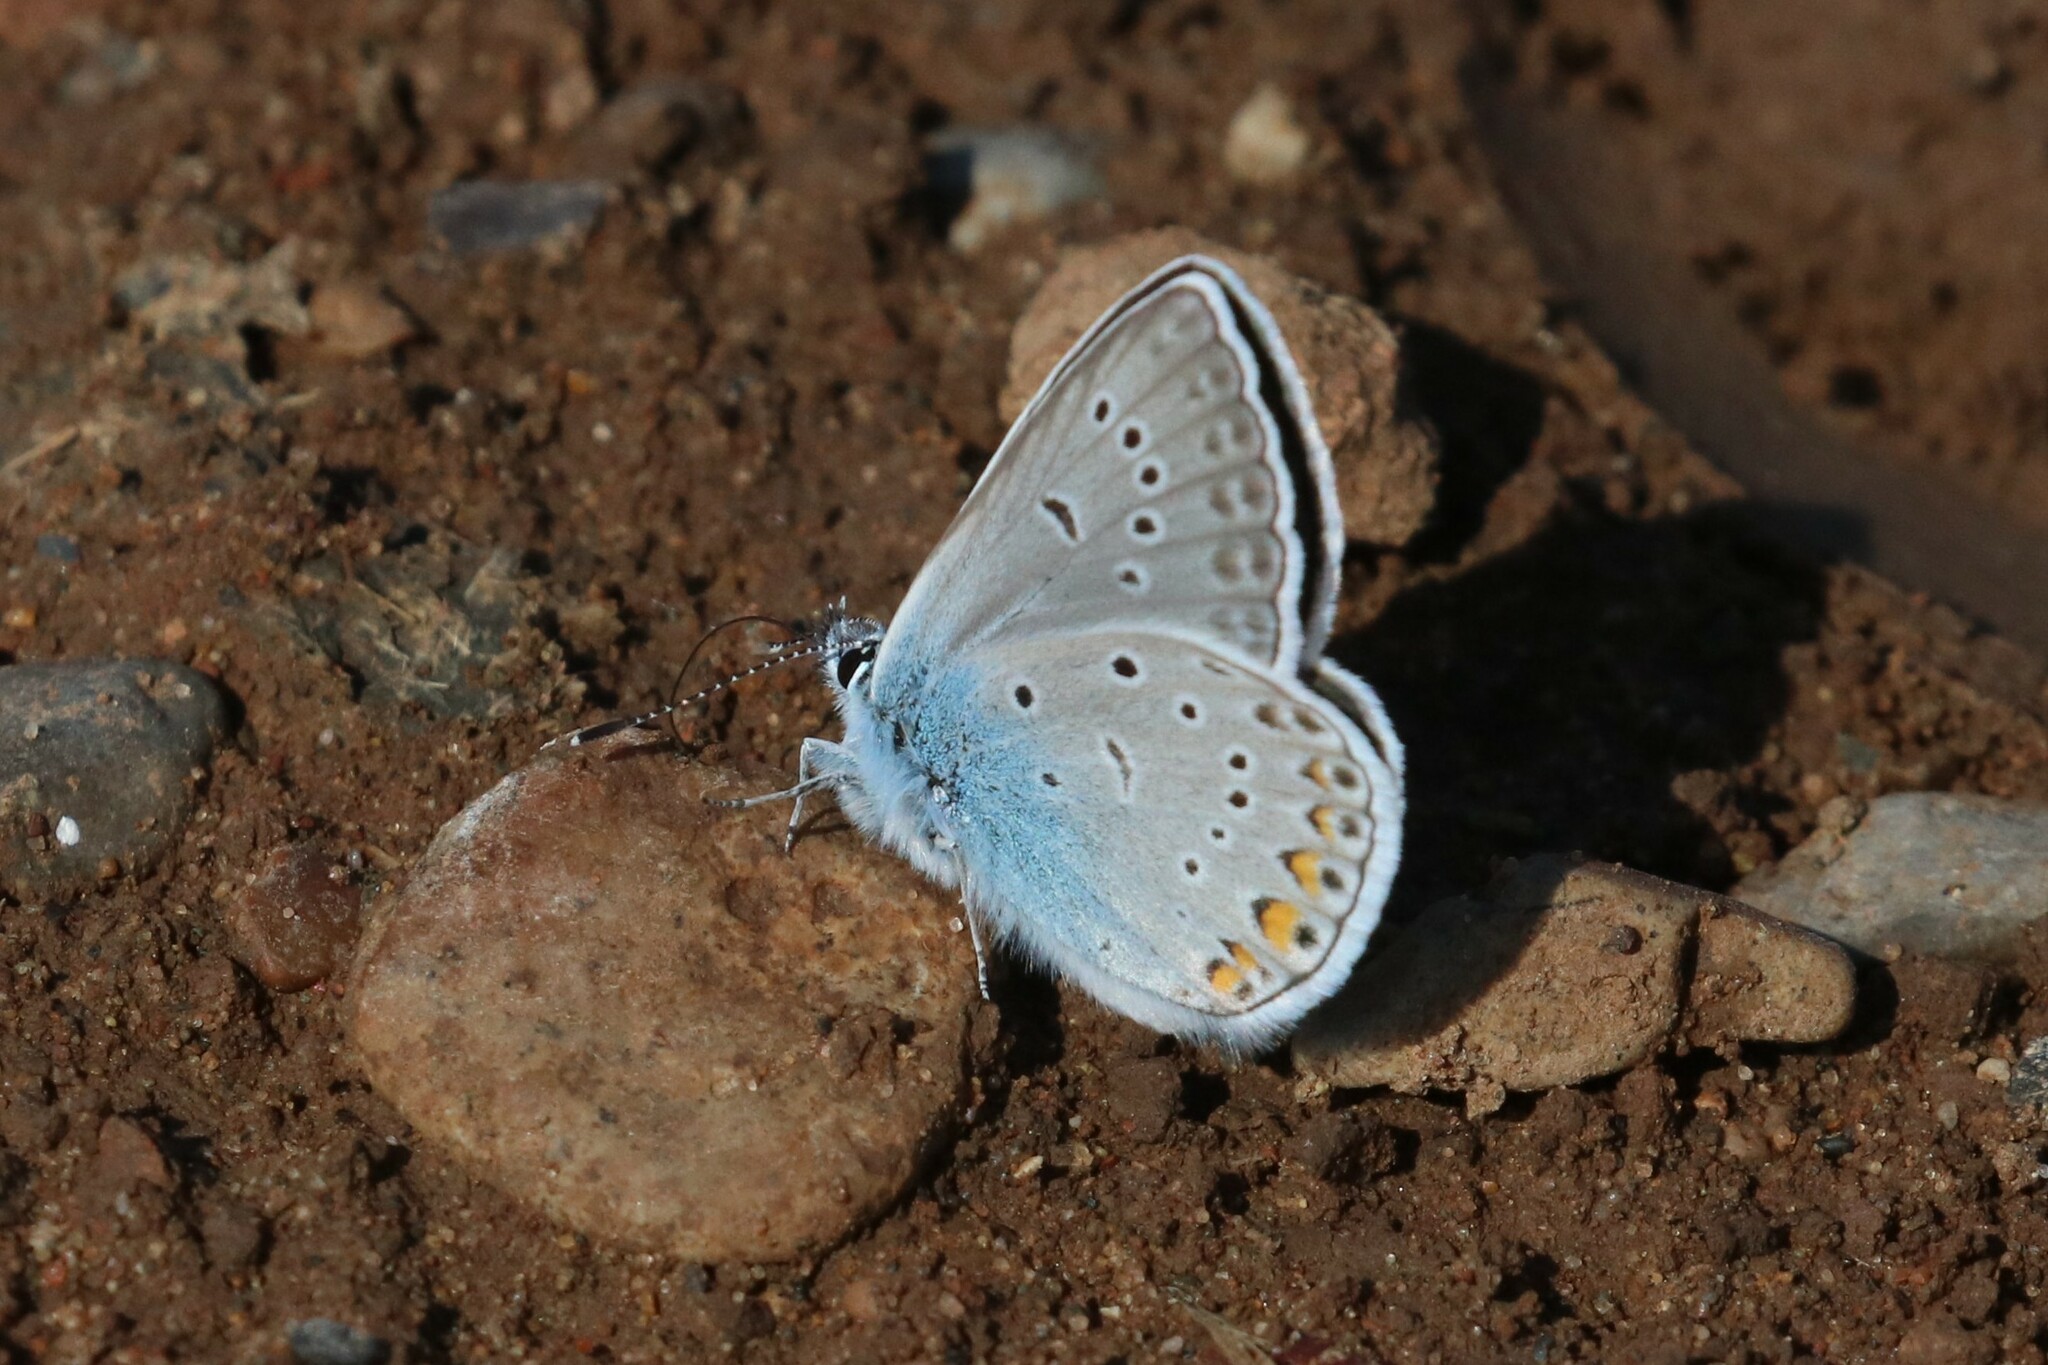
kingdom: Animalia
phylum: Arthropoda
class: Insecta
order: Lepidoptera
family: Lycaenidae
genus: Plebejus
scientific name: Plebejus amanda
